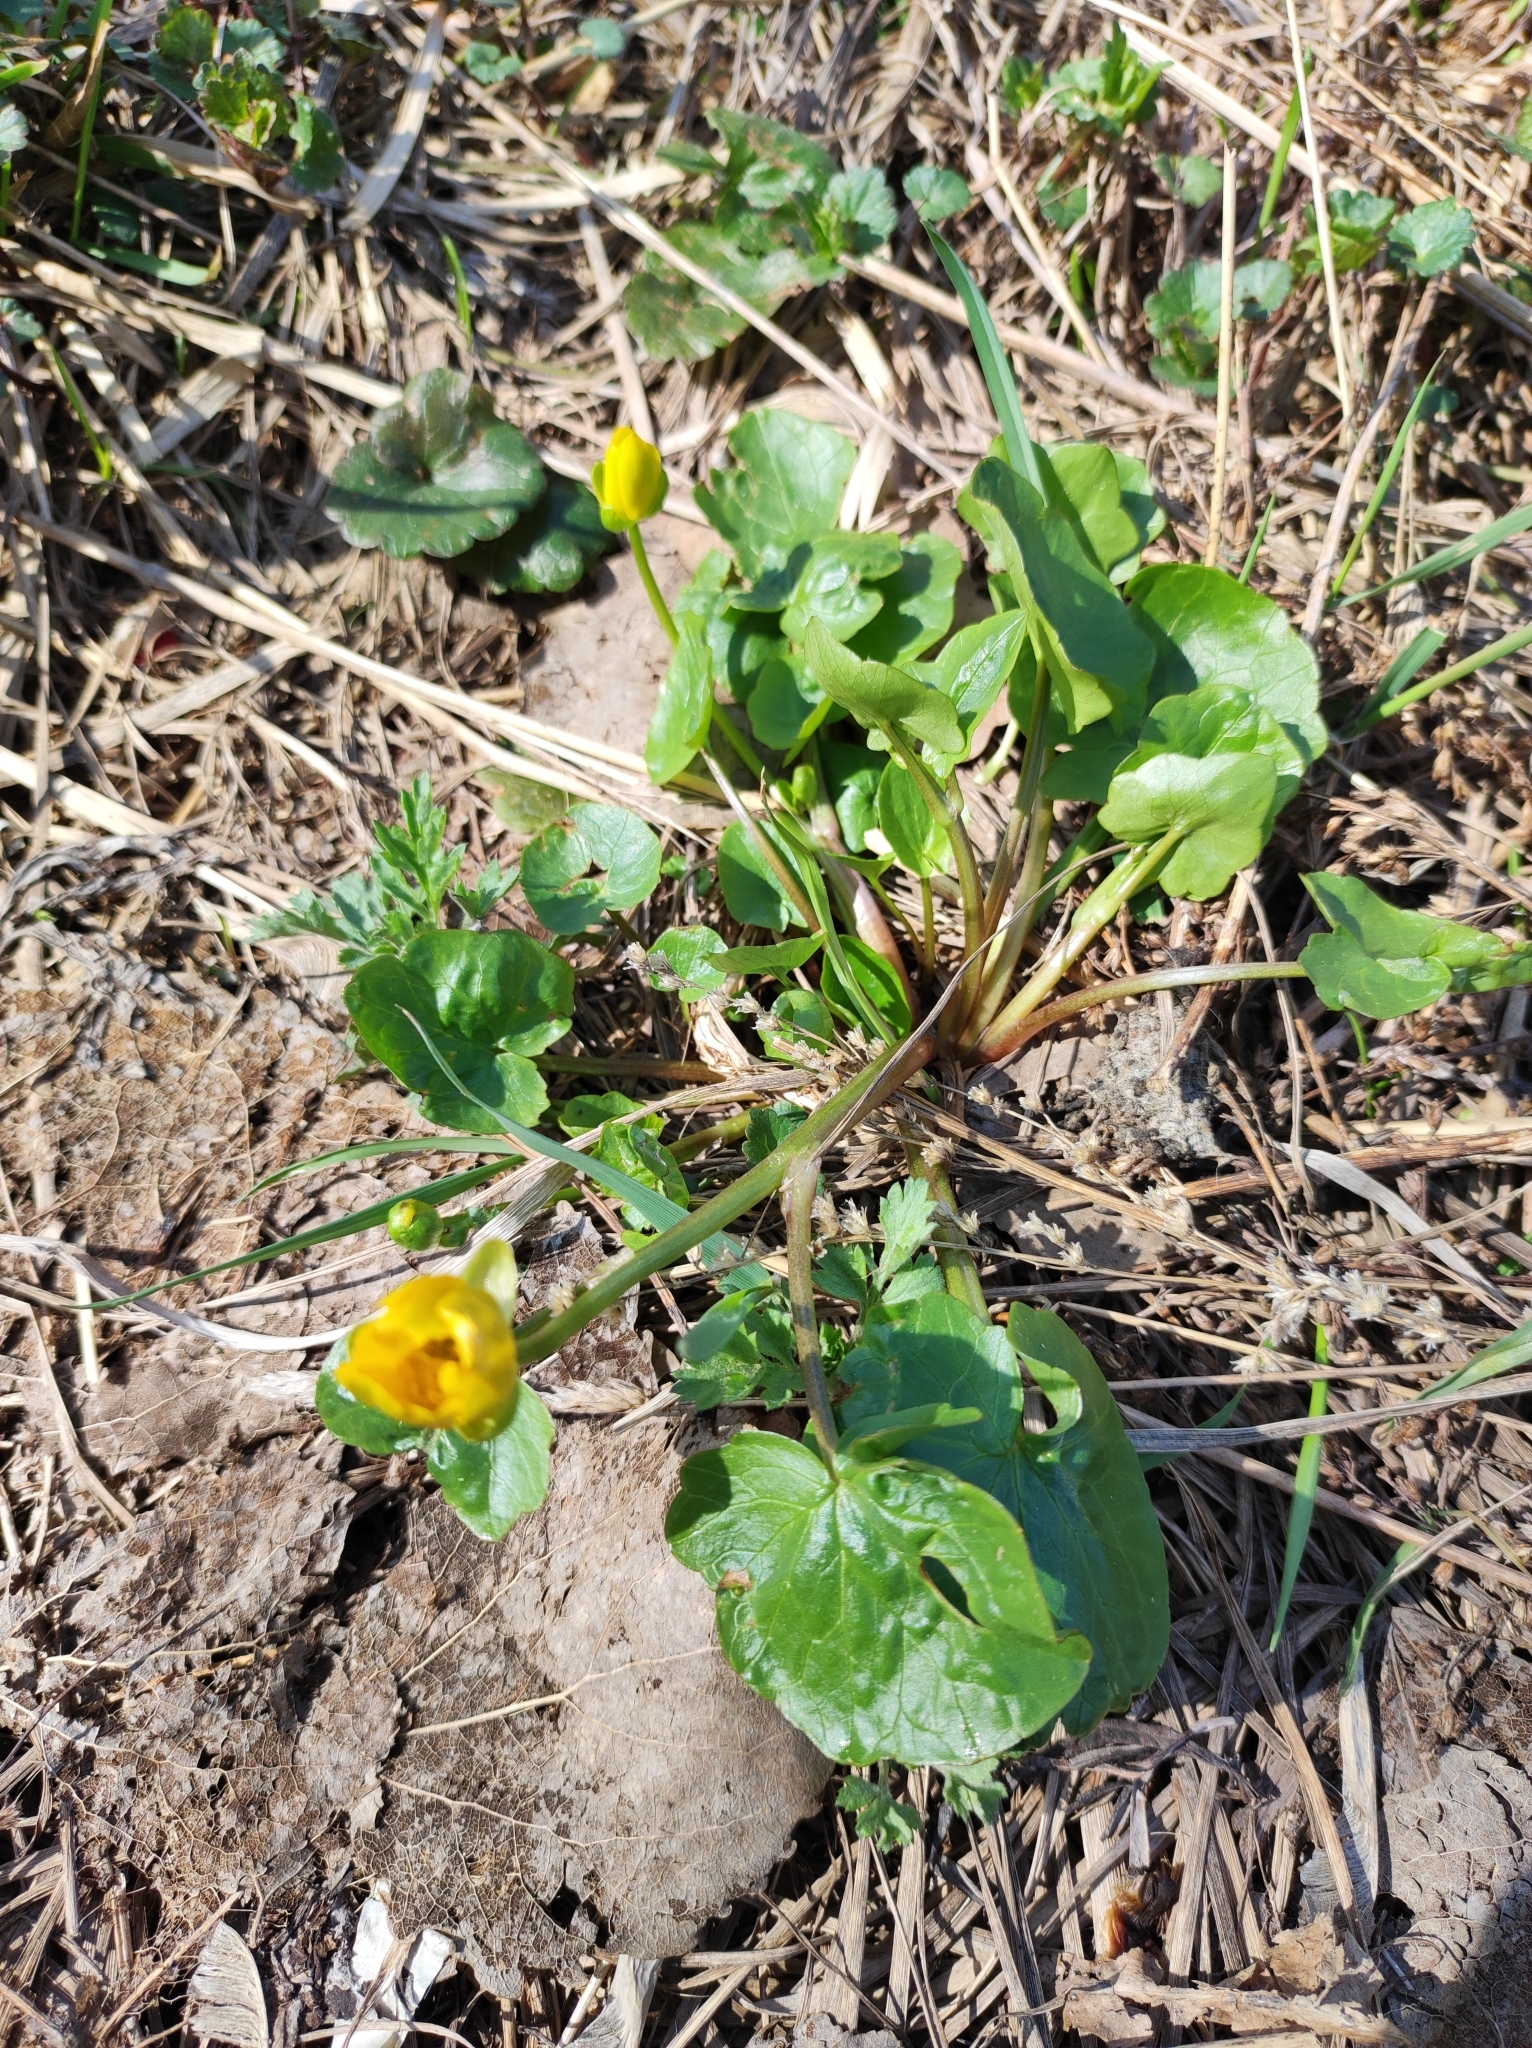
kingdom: Plantae
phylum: Tracheophyta
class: Magnoliopsida
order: Ranunculales
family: Ranunculaceae
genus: Ficaria
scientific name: Ficaria verna
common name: Lesser celandine
